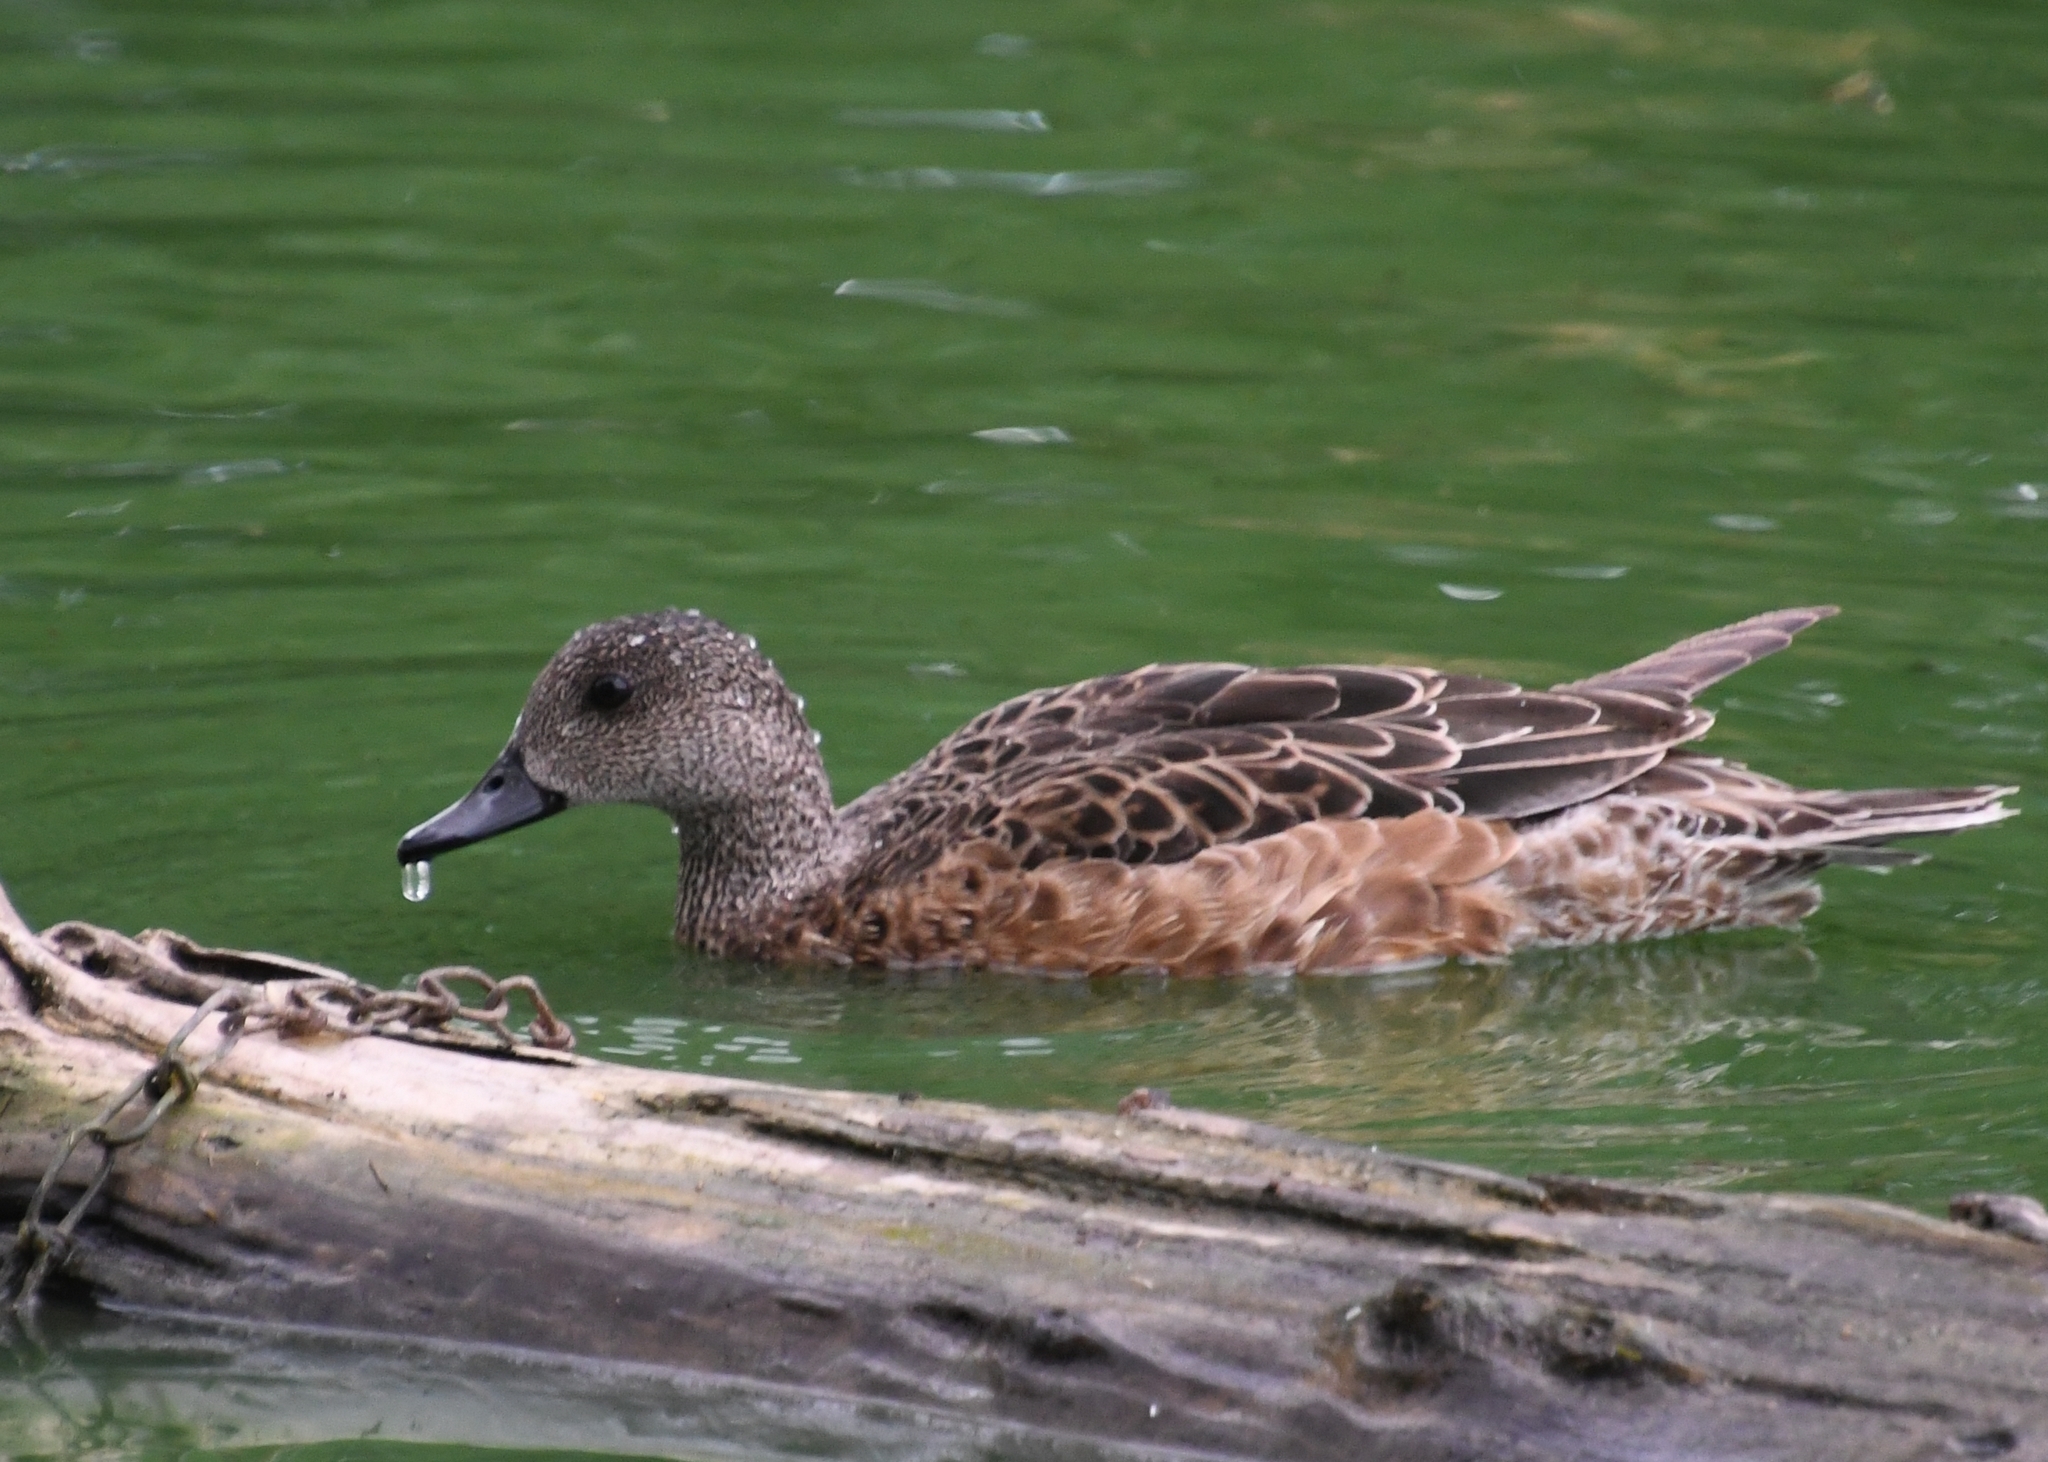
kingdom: Animalia
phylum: Chordata
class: Aves
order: Anseriformes
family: Anatidae
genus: Mareca
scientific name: Mareca americana
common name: American wigeon
